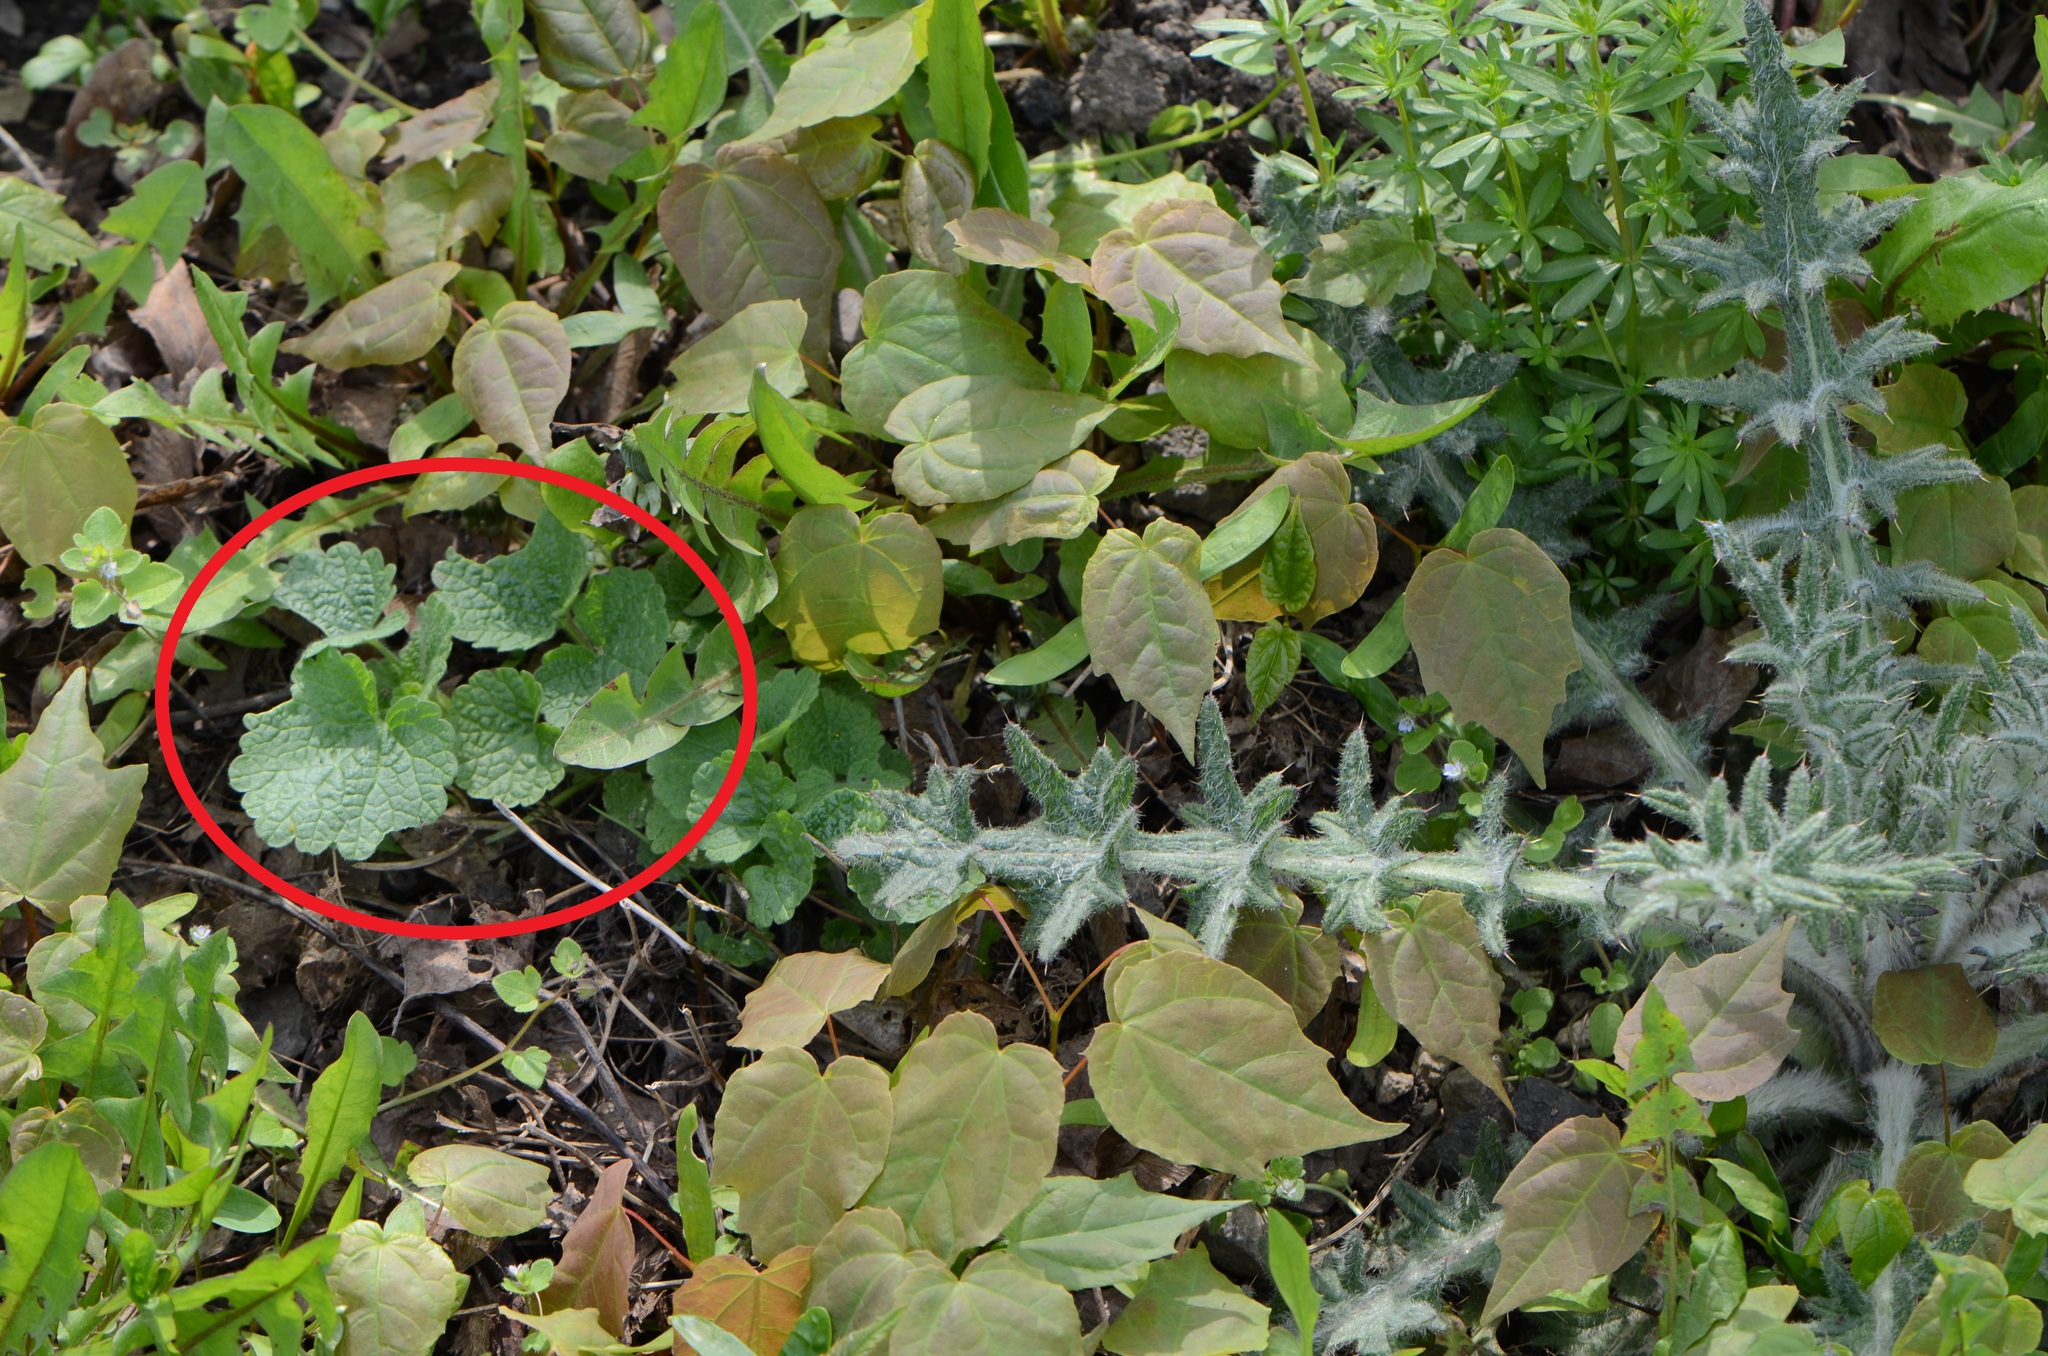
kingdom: Plantae
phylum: Tracheophyta
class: Magnoliopsida
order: Brassicales
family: Brassicaceae
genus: Alliaria
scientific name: Alliaria petiolata
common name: Garlic mustard
